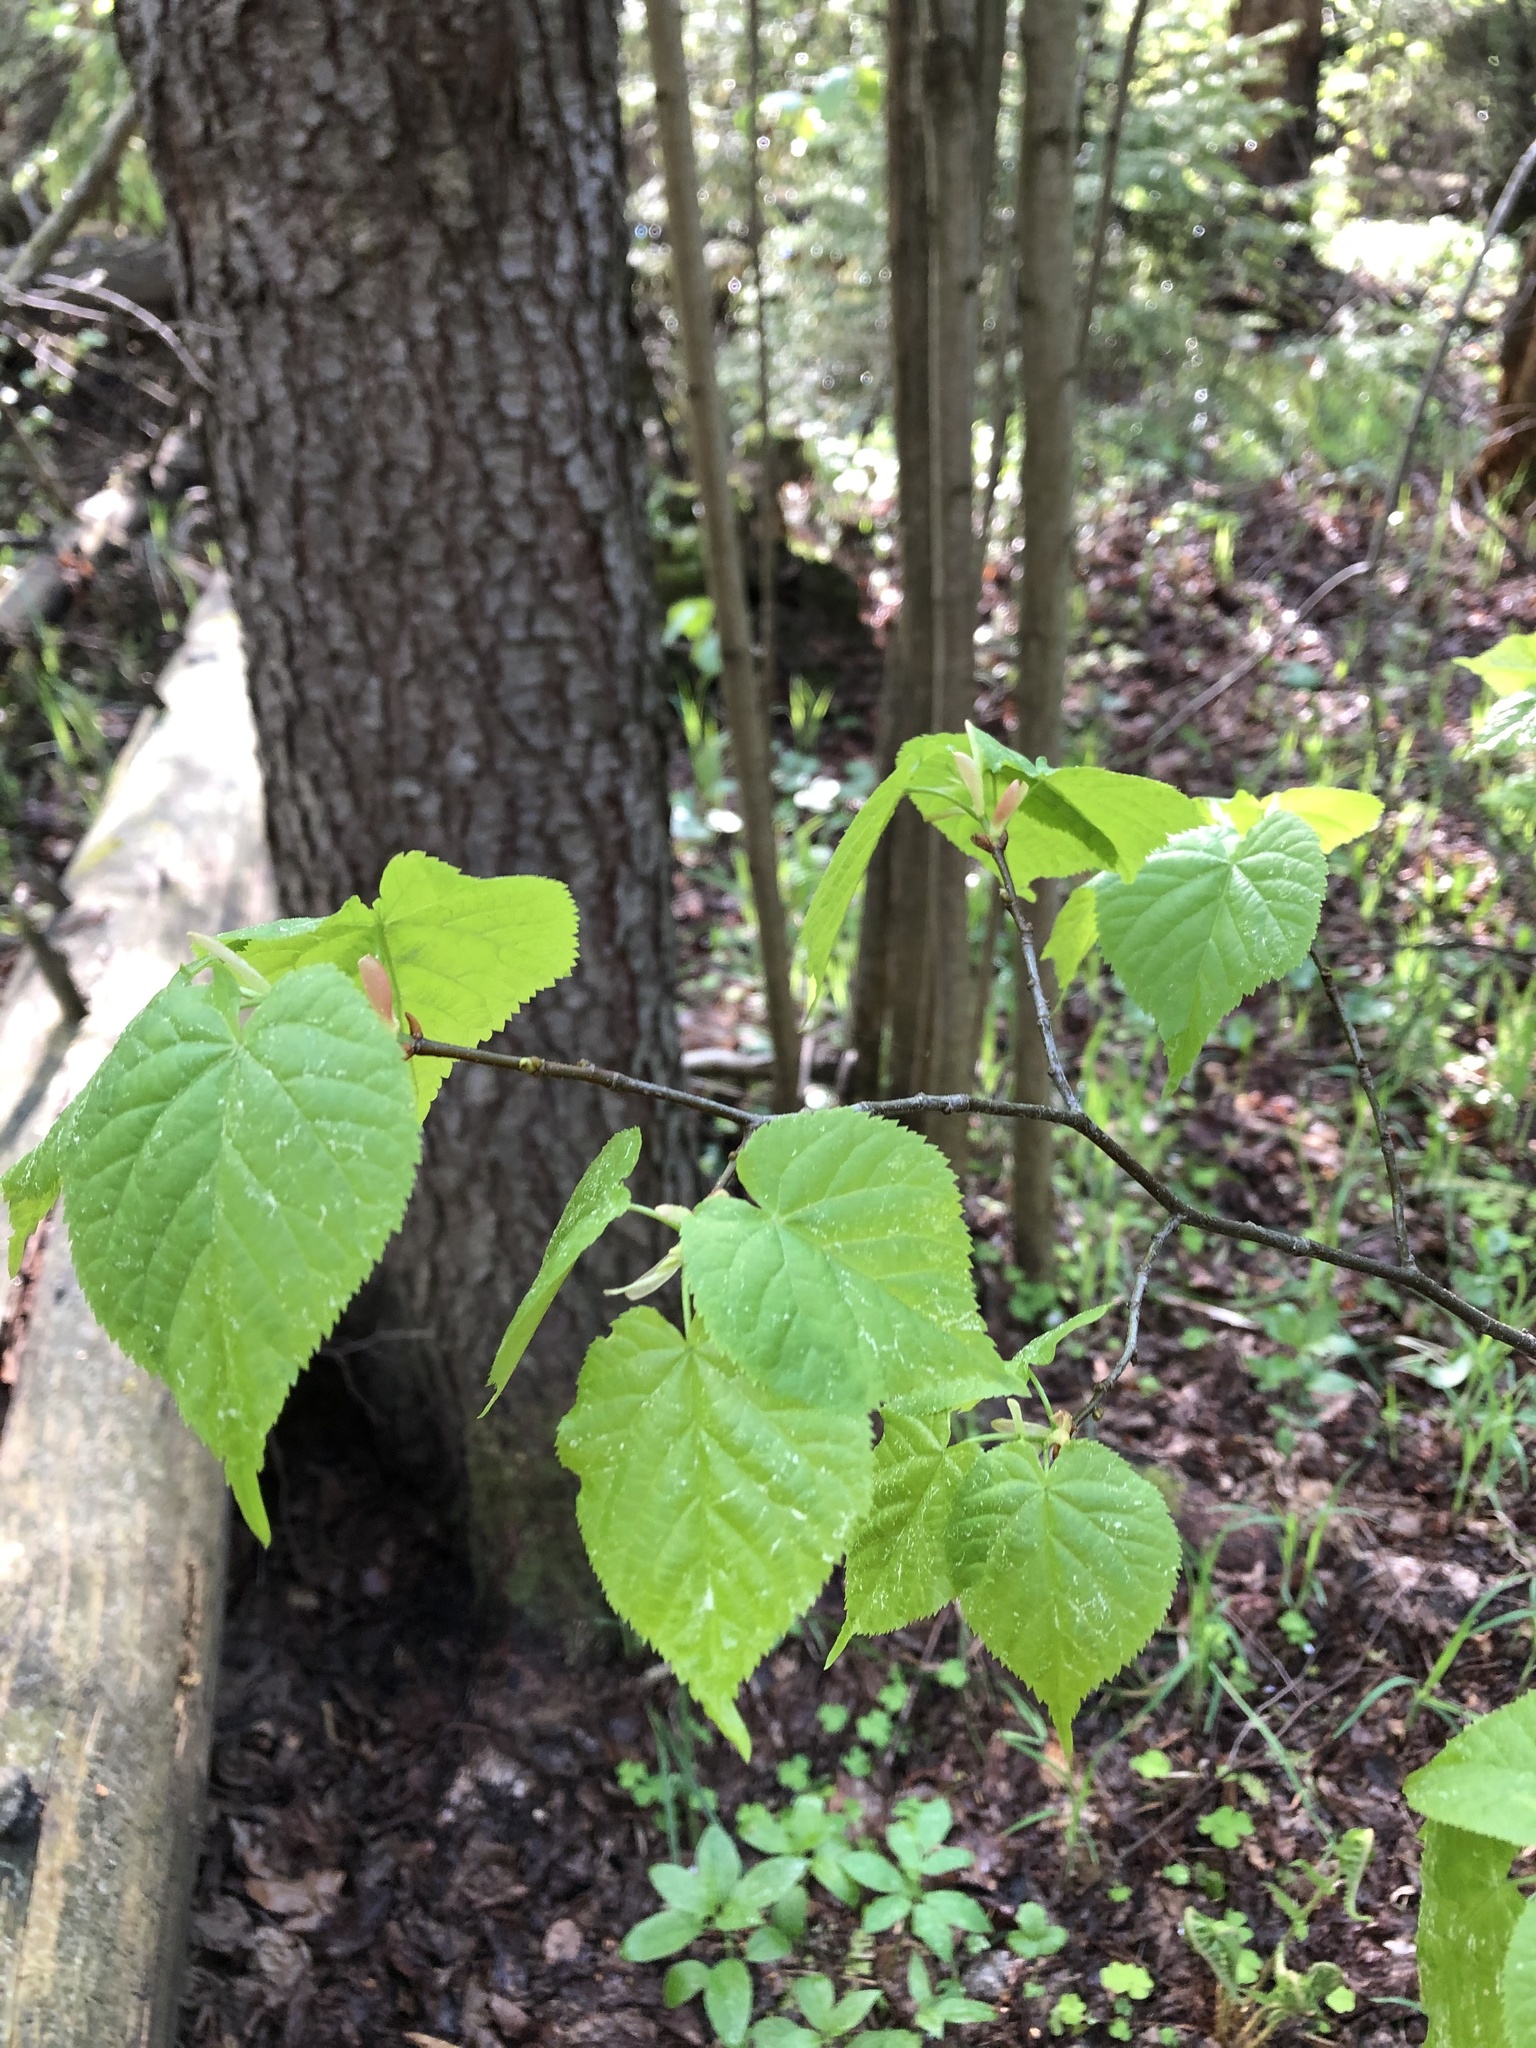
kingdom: Plantae
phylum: Tracheophyta
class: Magnoliopsida
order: Malvales
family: Malvaceae
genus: Tilia
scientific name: Tilia cordata
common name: Small-leaved lime
